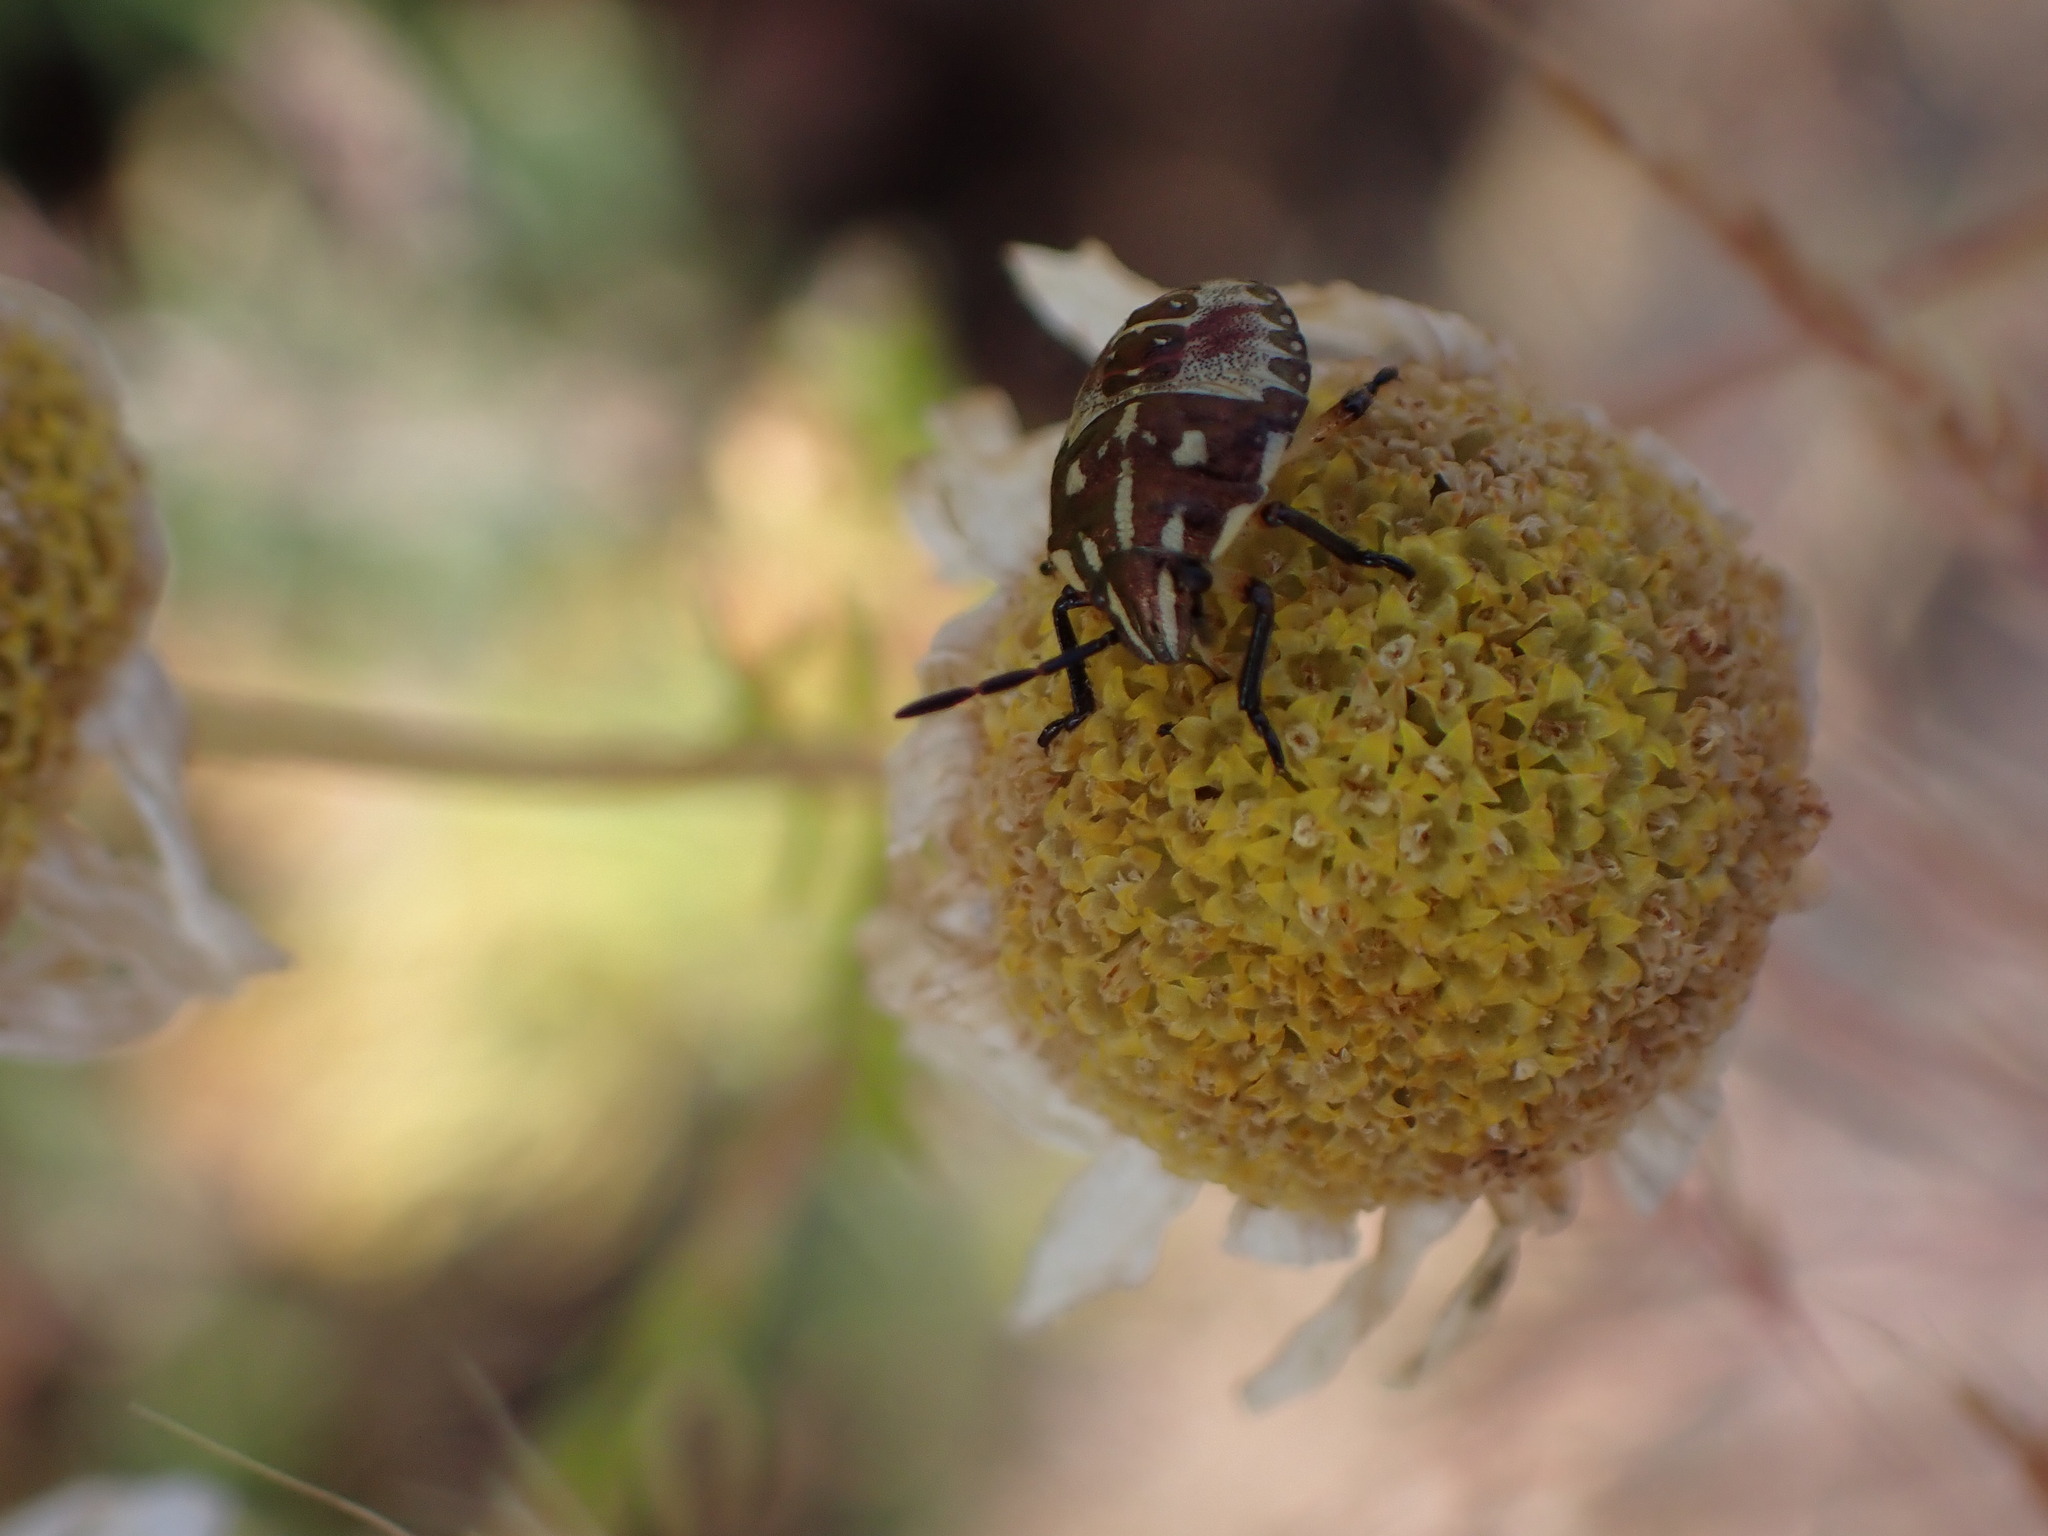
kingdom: Animalia
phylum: Arthropoda
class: Insecta
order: Hemiptera
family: Pentatomidae
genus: Carpocoris
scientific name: Carpocoris purpureipennis
